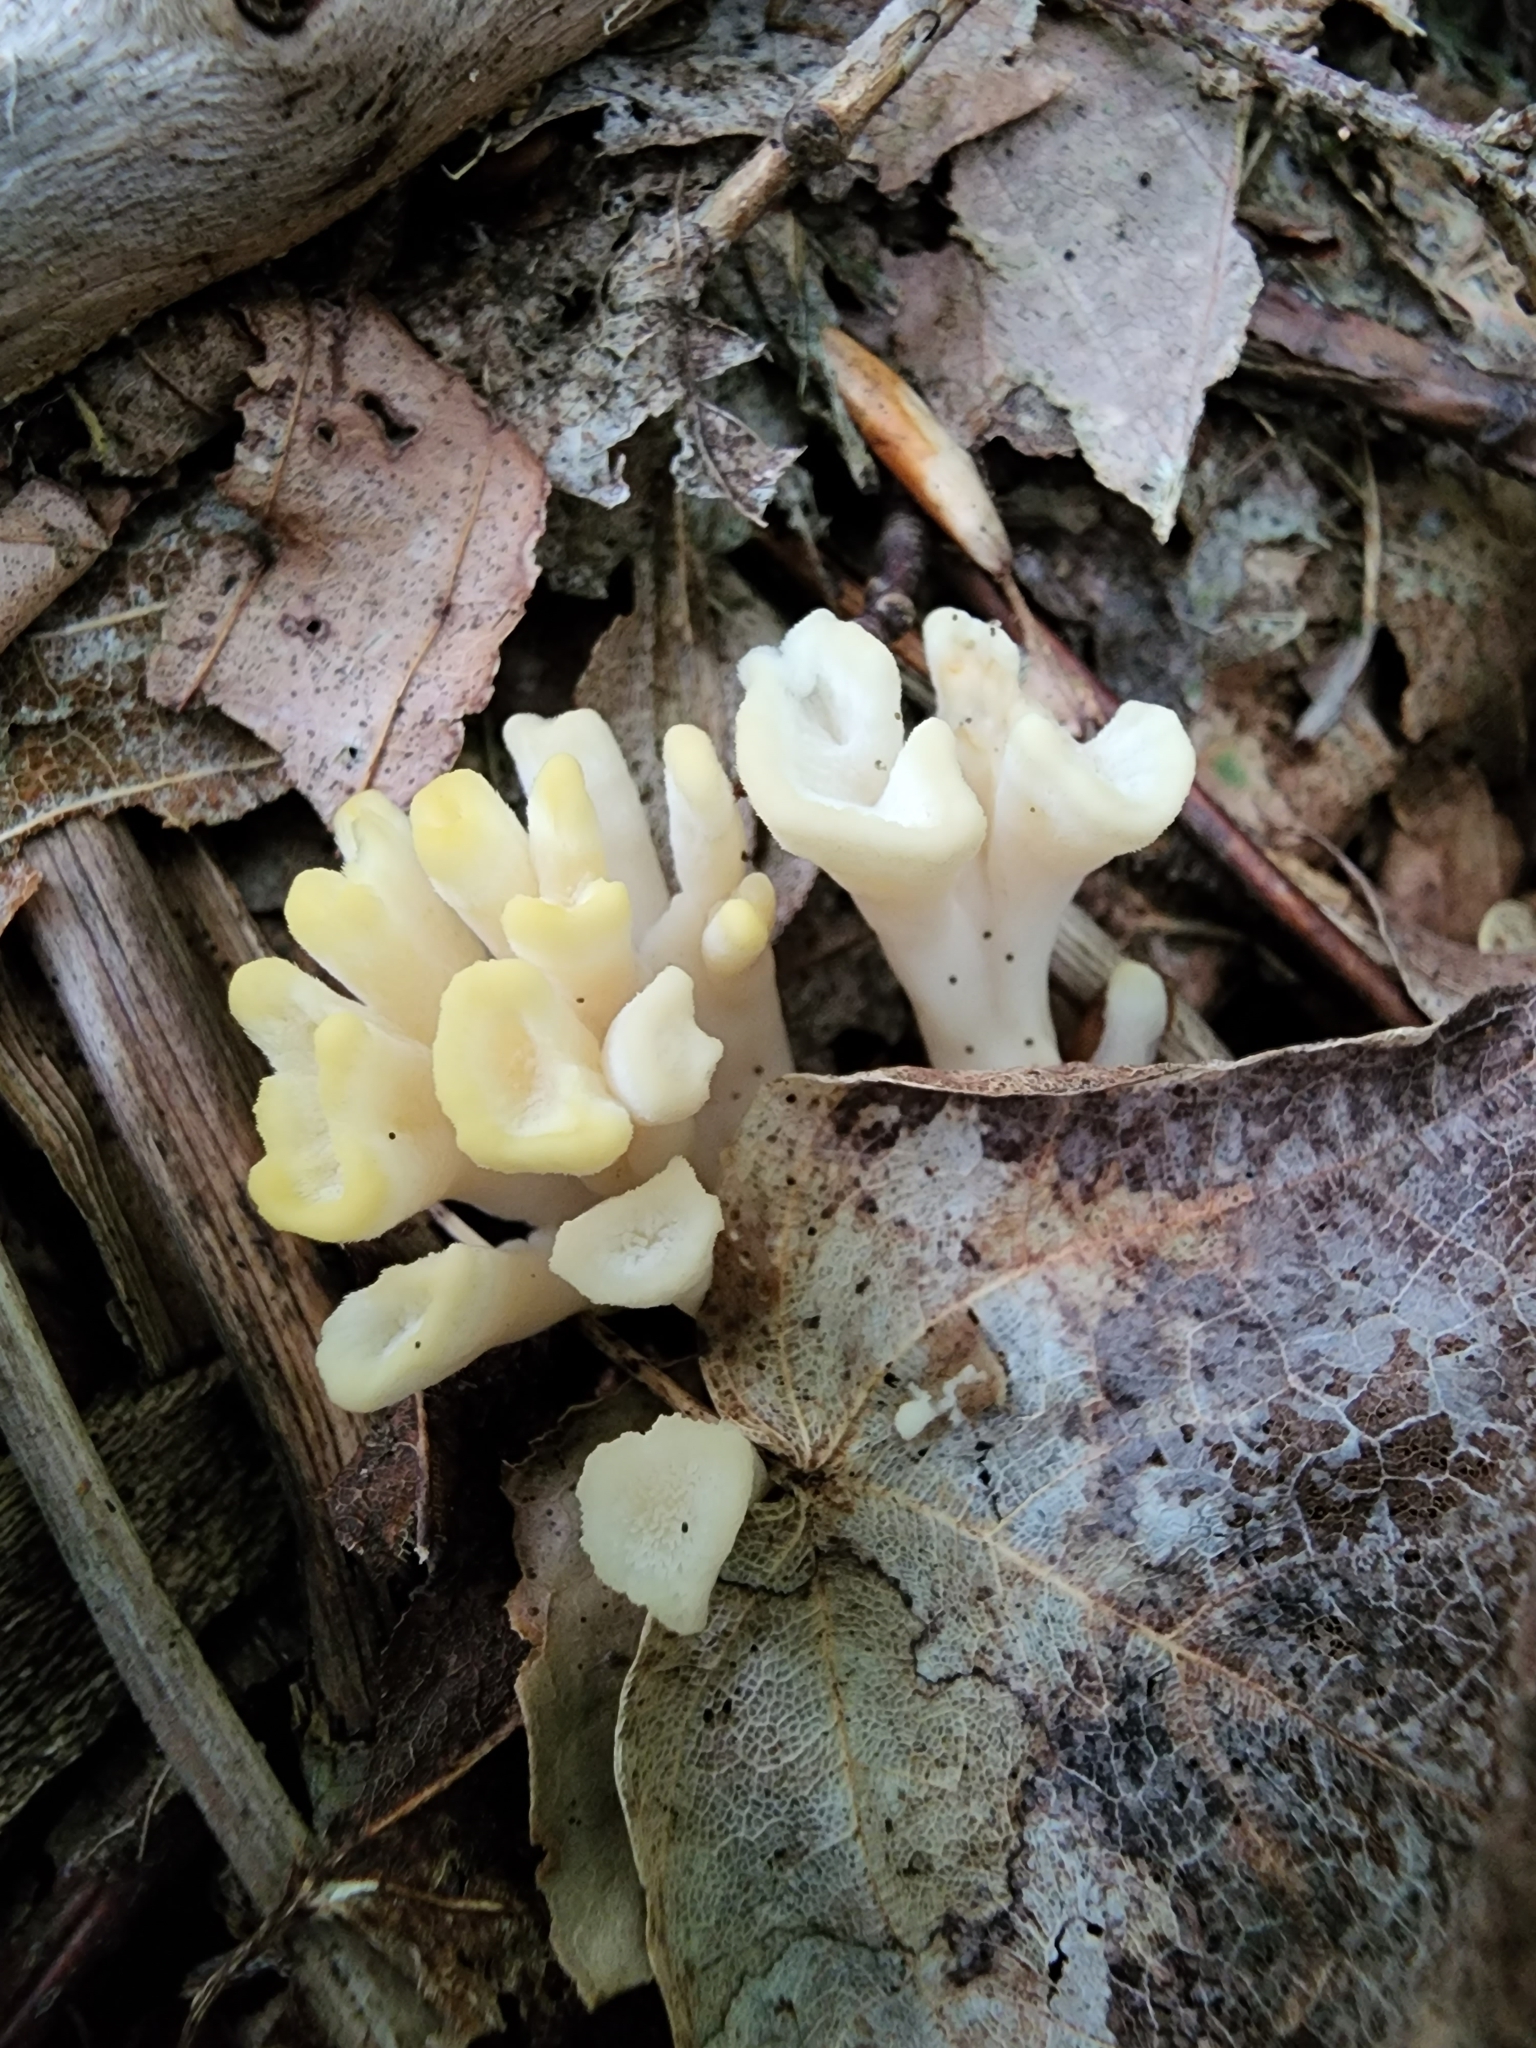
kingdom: Fungi
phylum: Basidiomycota
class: Agaricomycetes
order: Tremellodendropsidales
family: Tremellodendropsidaceae
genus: Tremellodendropsis
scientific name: Tremellodendropsis tuberosa
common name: Ashen coral
